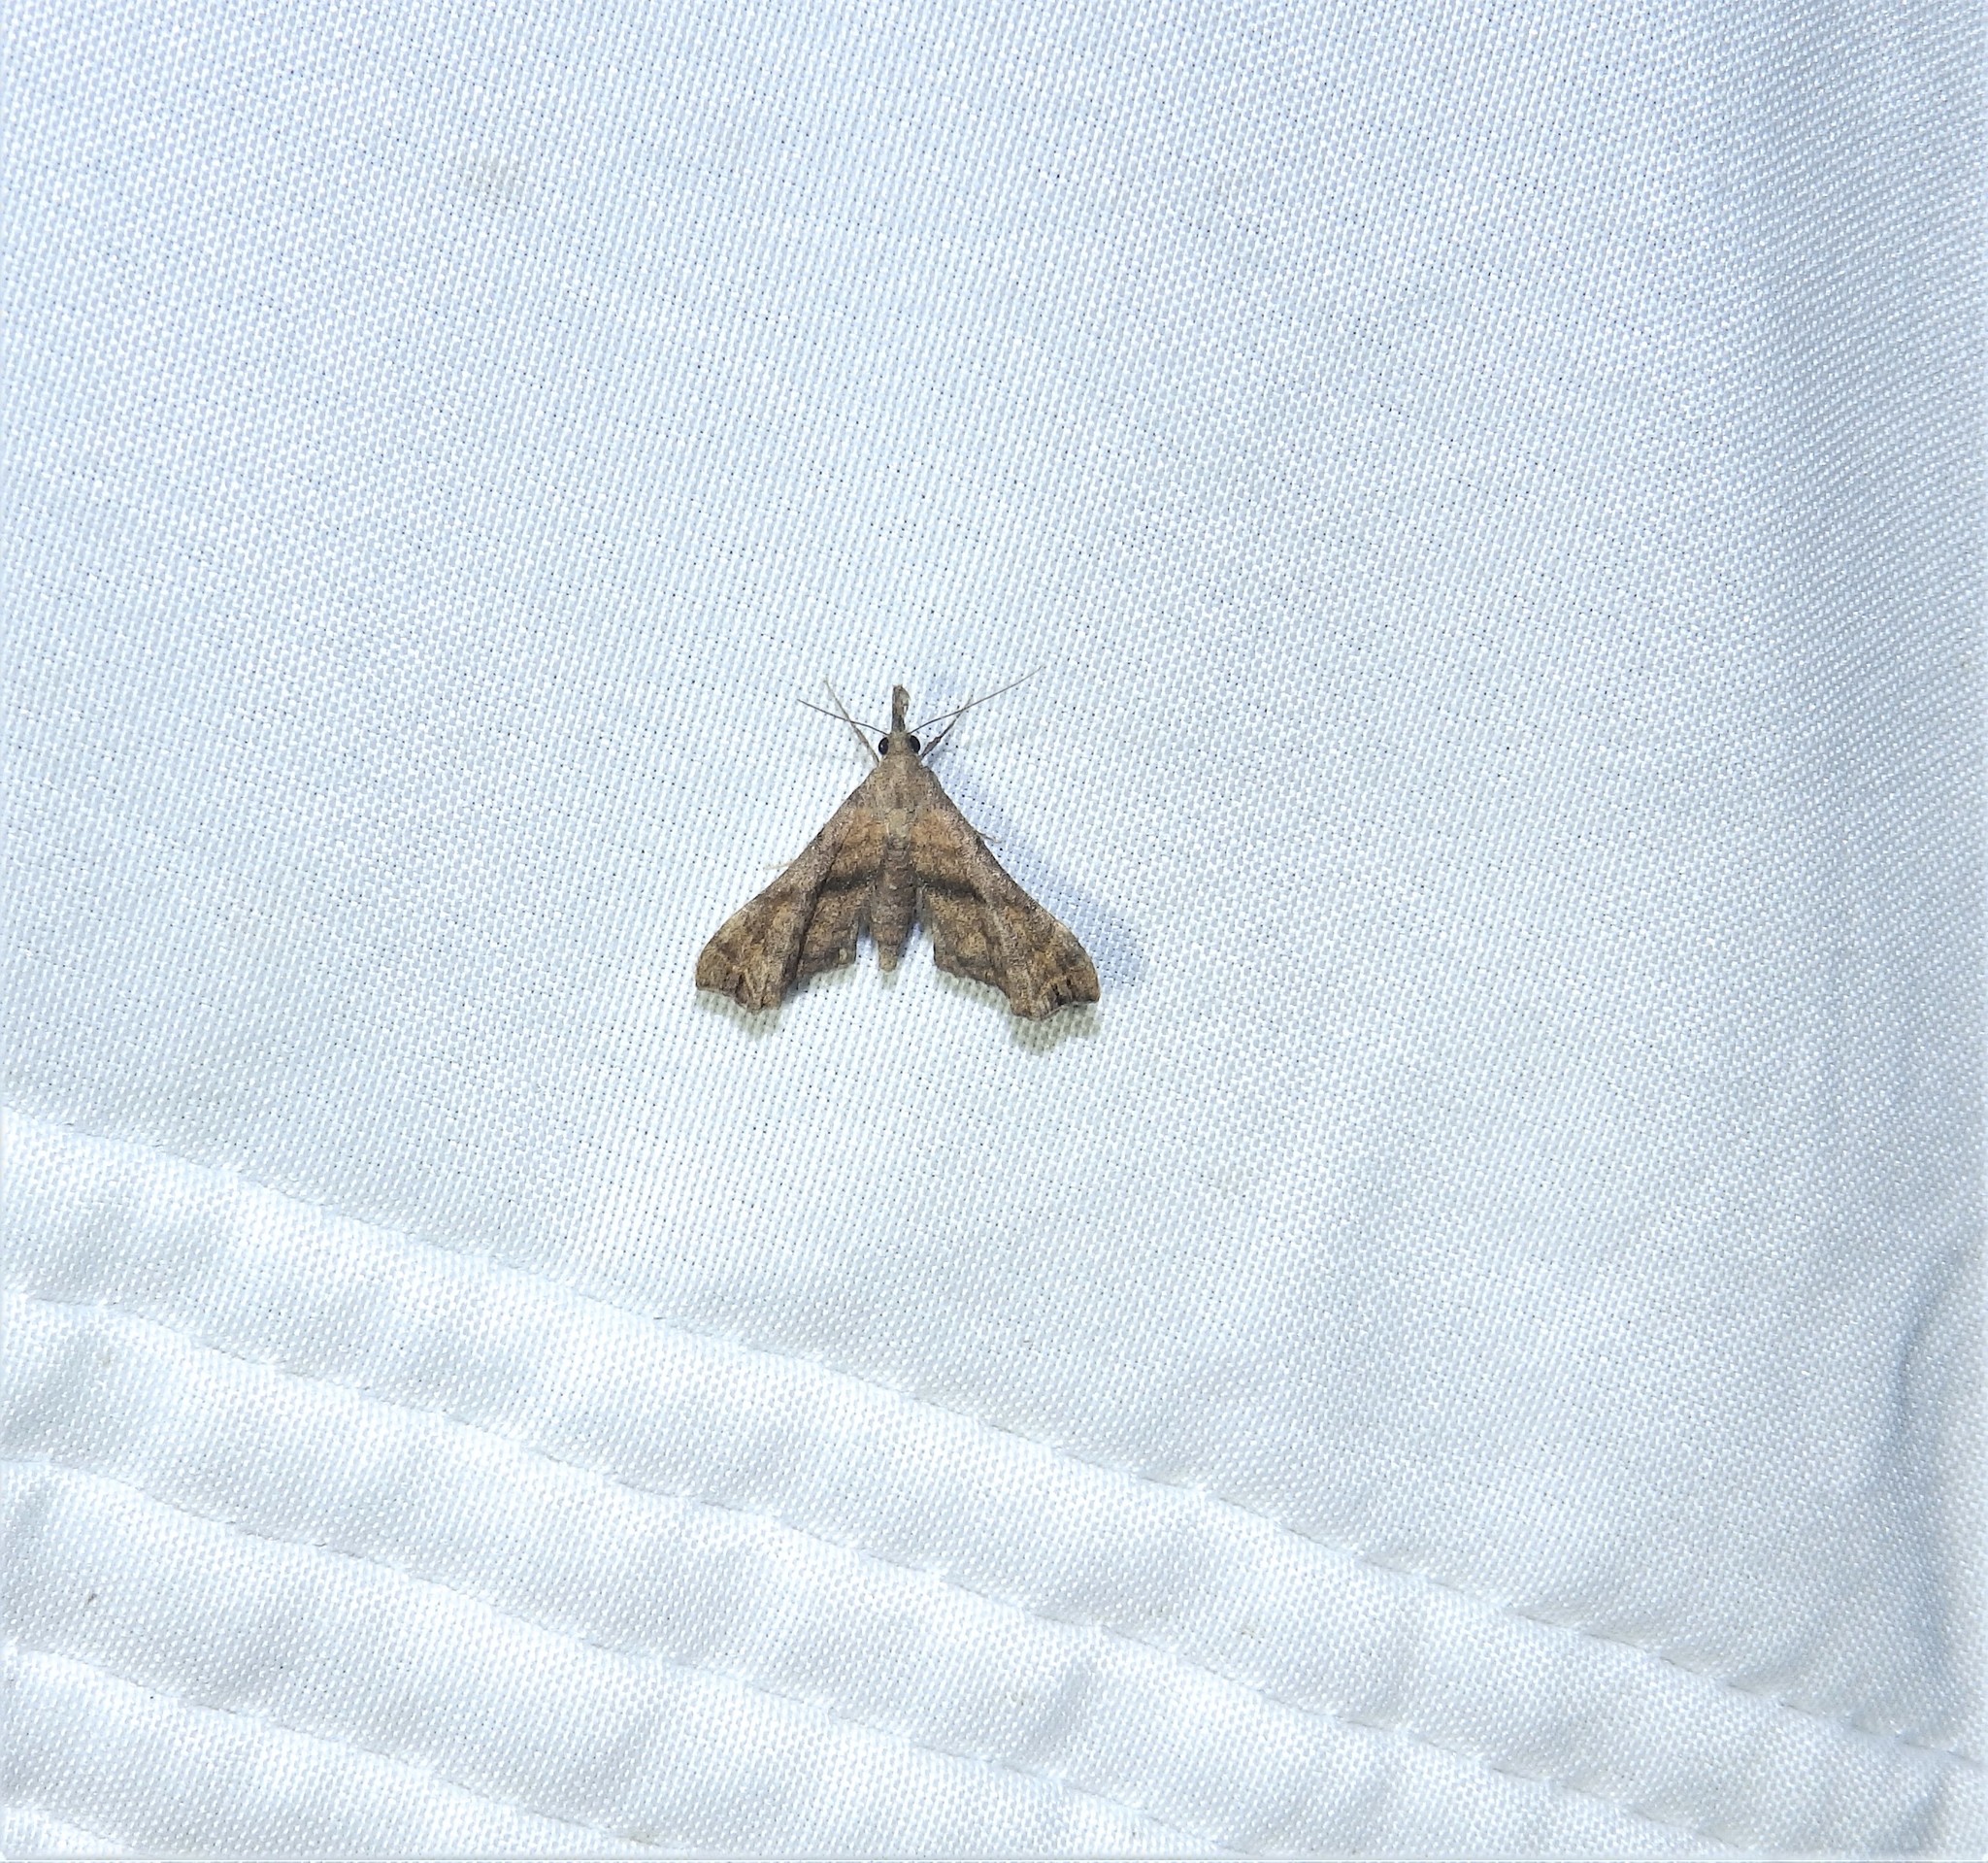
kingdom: Animalia
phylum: Arthropoda
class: Insecta
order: Lepidoptera
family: Erebidae
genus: Palthis
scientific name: Palthis asopialis
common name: Faint-spotted palthis moth
